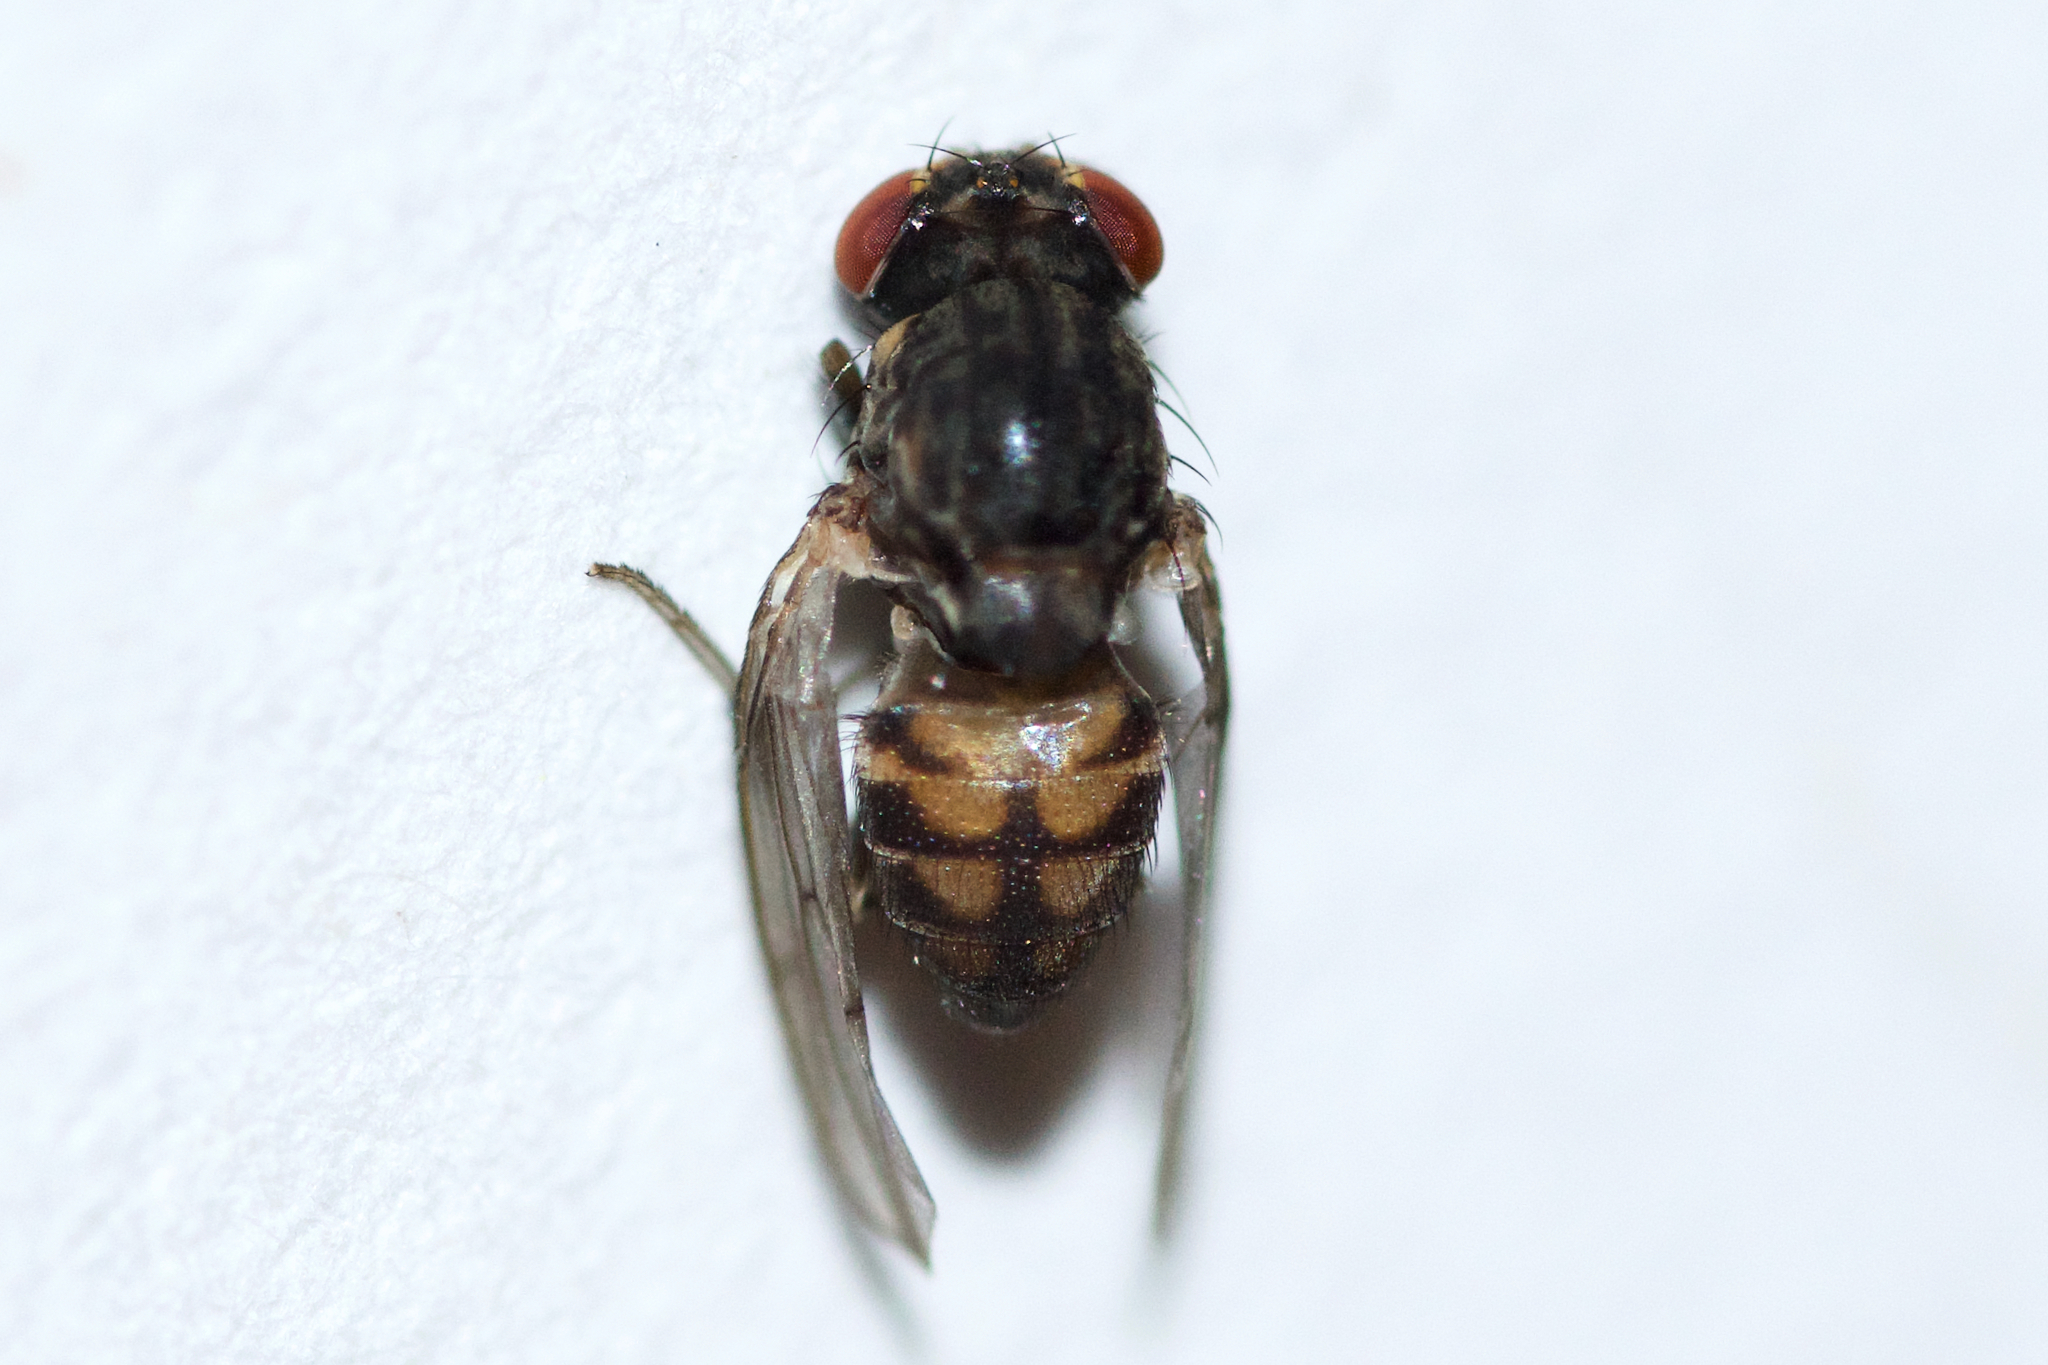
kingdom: Animalia
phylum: Arthropoda
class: Insecta
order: Diptera
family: Drosophilidae
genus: Phortica
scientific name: Phortica variegata
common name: Variegated fruit-fly
